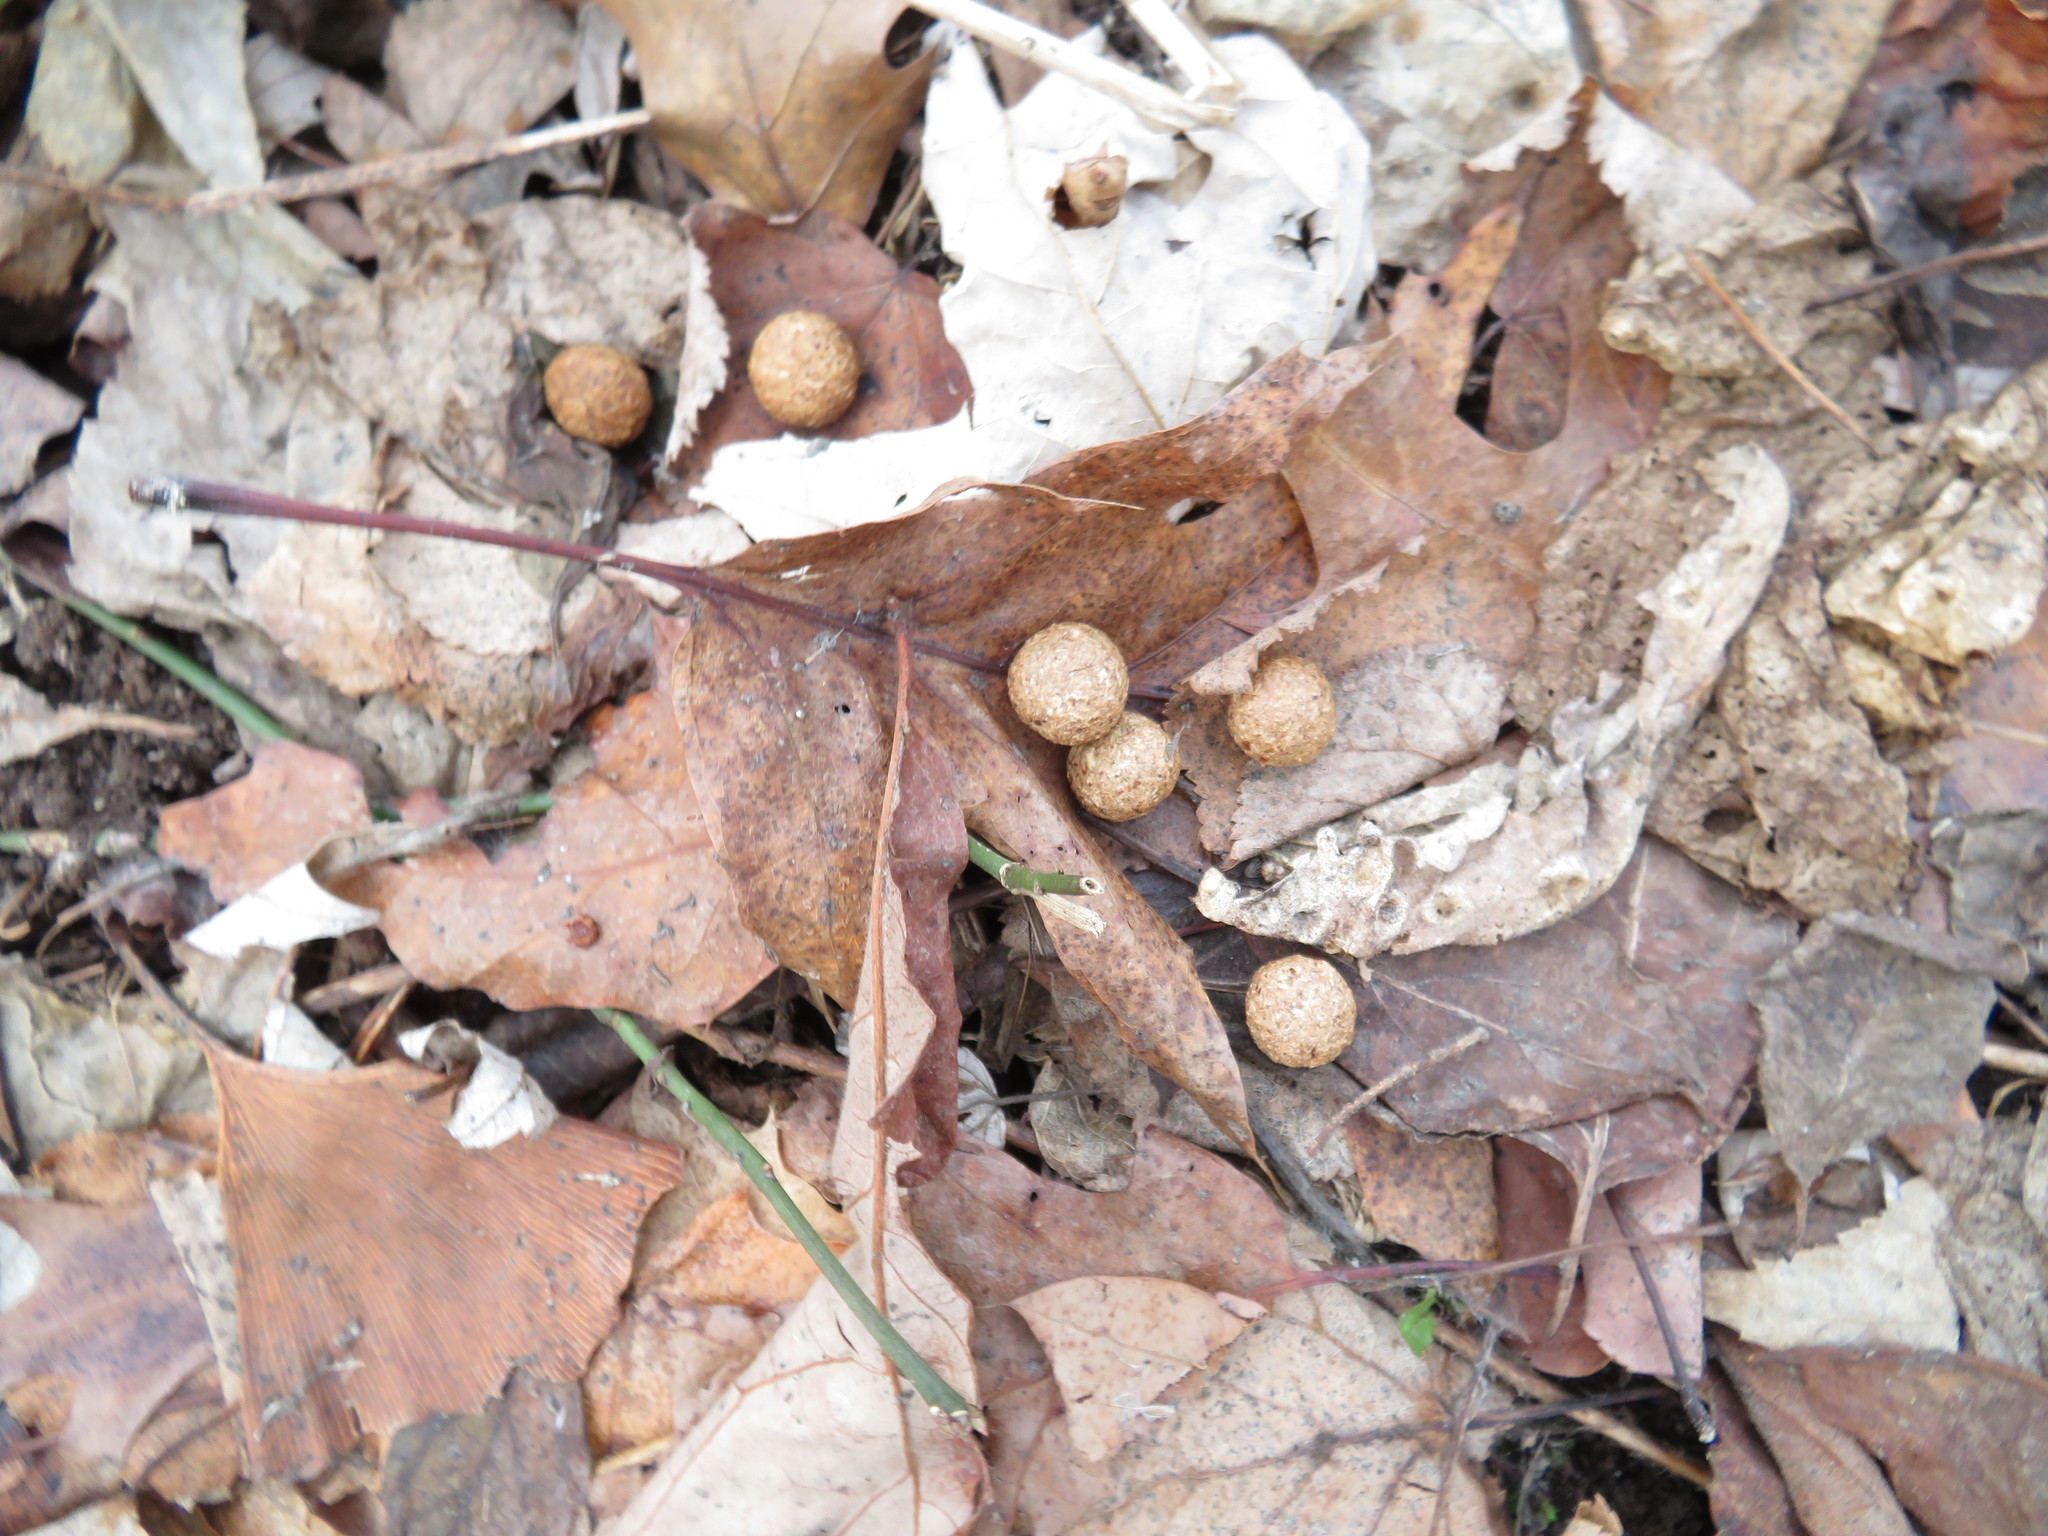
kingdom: Animalia
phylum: Chordata
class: Mammalia
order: Lagomorpha
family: Leporidae
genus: Sylvilagus
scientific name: Sylvilagus floridanus
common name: Eastern cottontail
